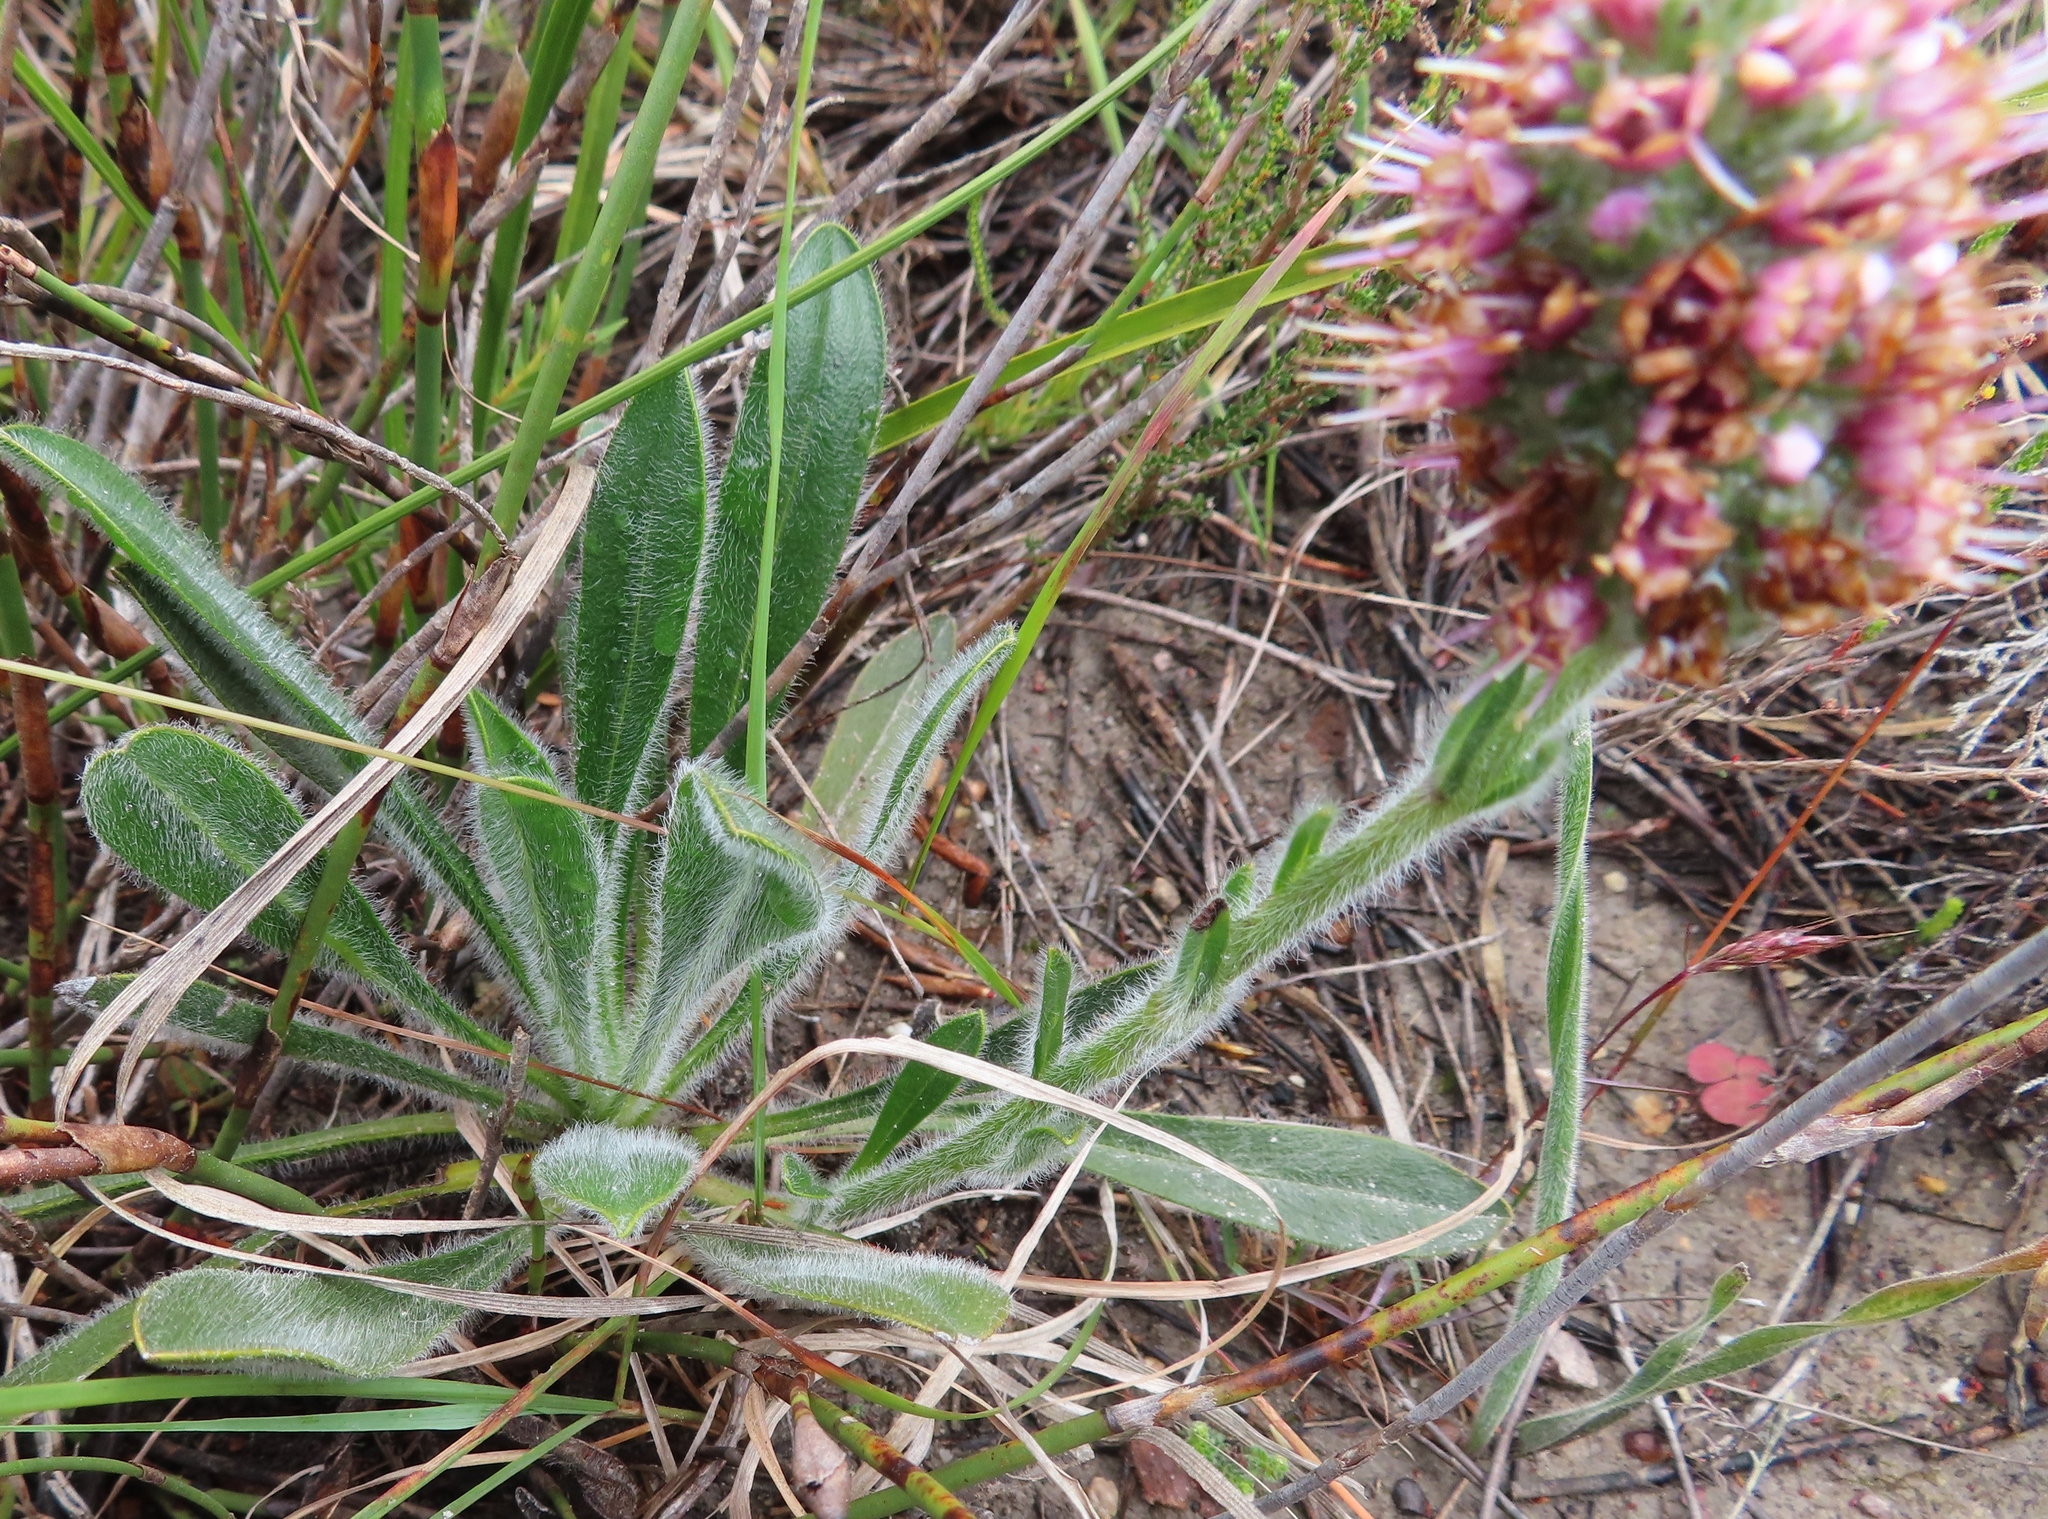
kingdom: Plantae
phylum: Tracheophyta
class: Magnoliopsida
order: Boraginales
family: Boraginaceae
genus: Lobostemon
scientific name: Lobostemon ecklonianus
